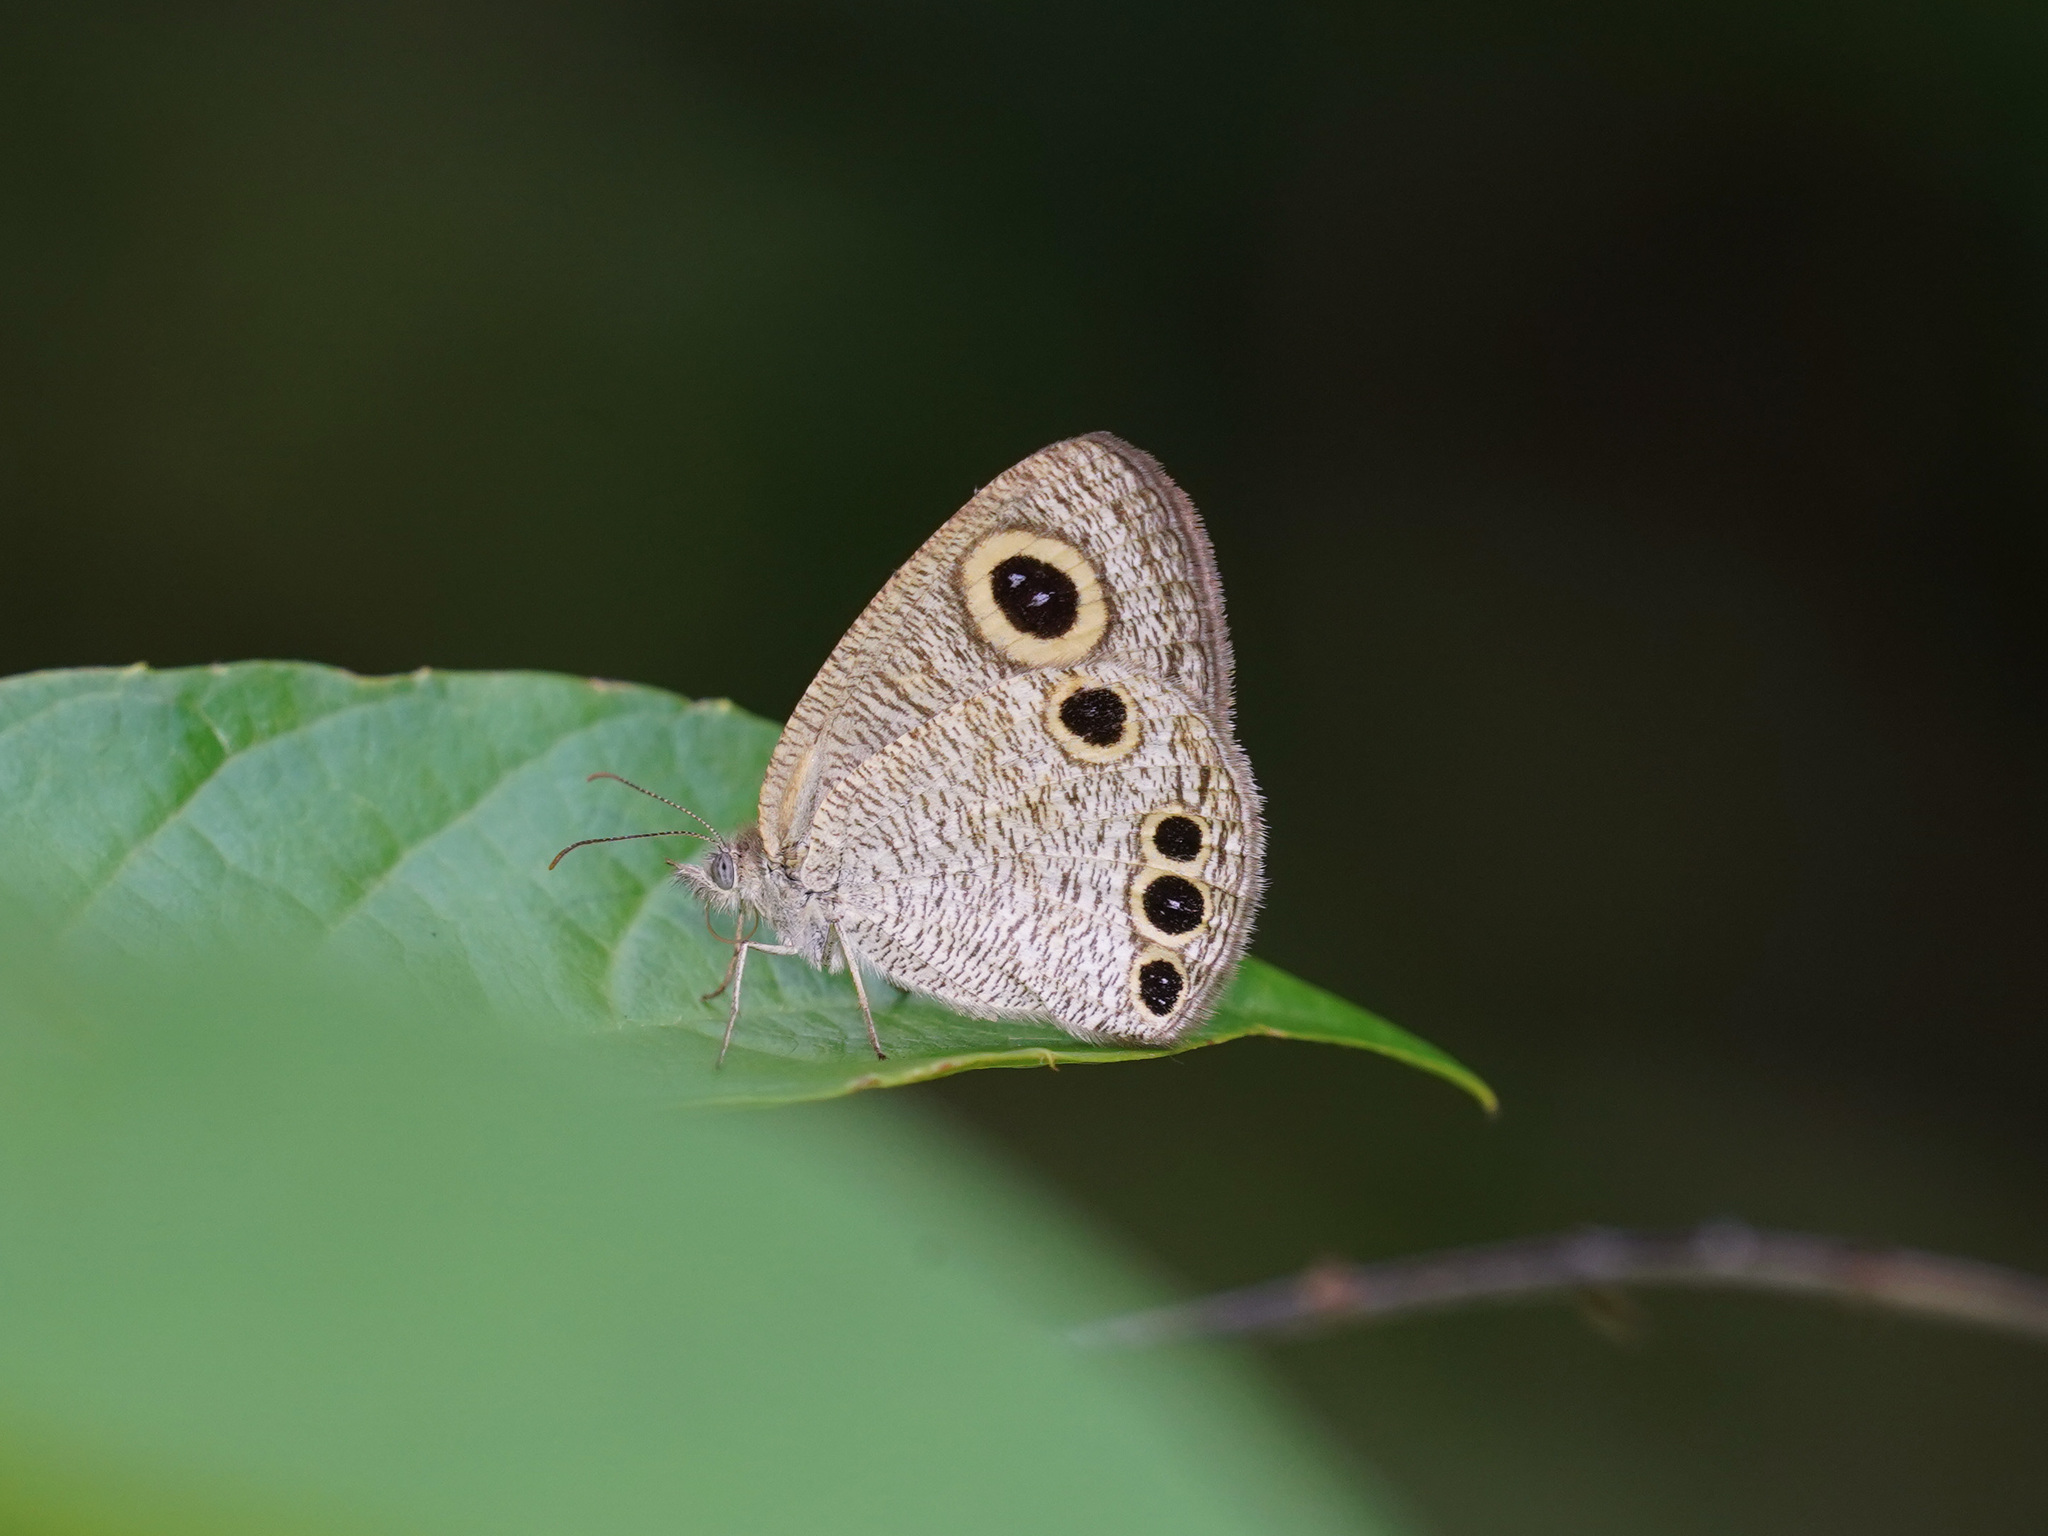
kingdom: Animalia
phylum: Arthropoda
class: Insecta
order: Lepidoptera
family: Nymphalidae
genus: Ypthima
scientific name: Ypthima huebneri
